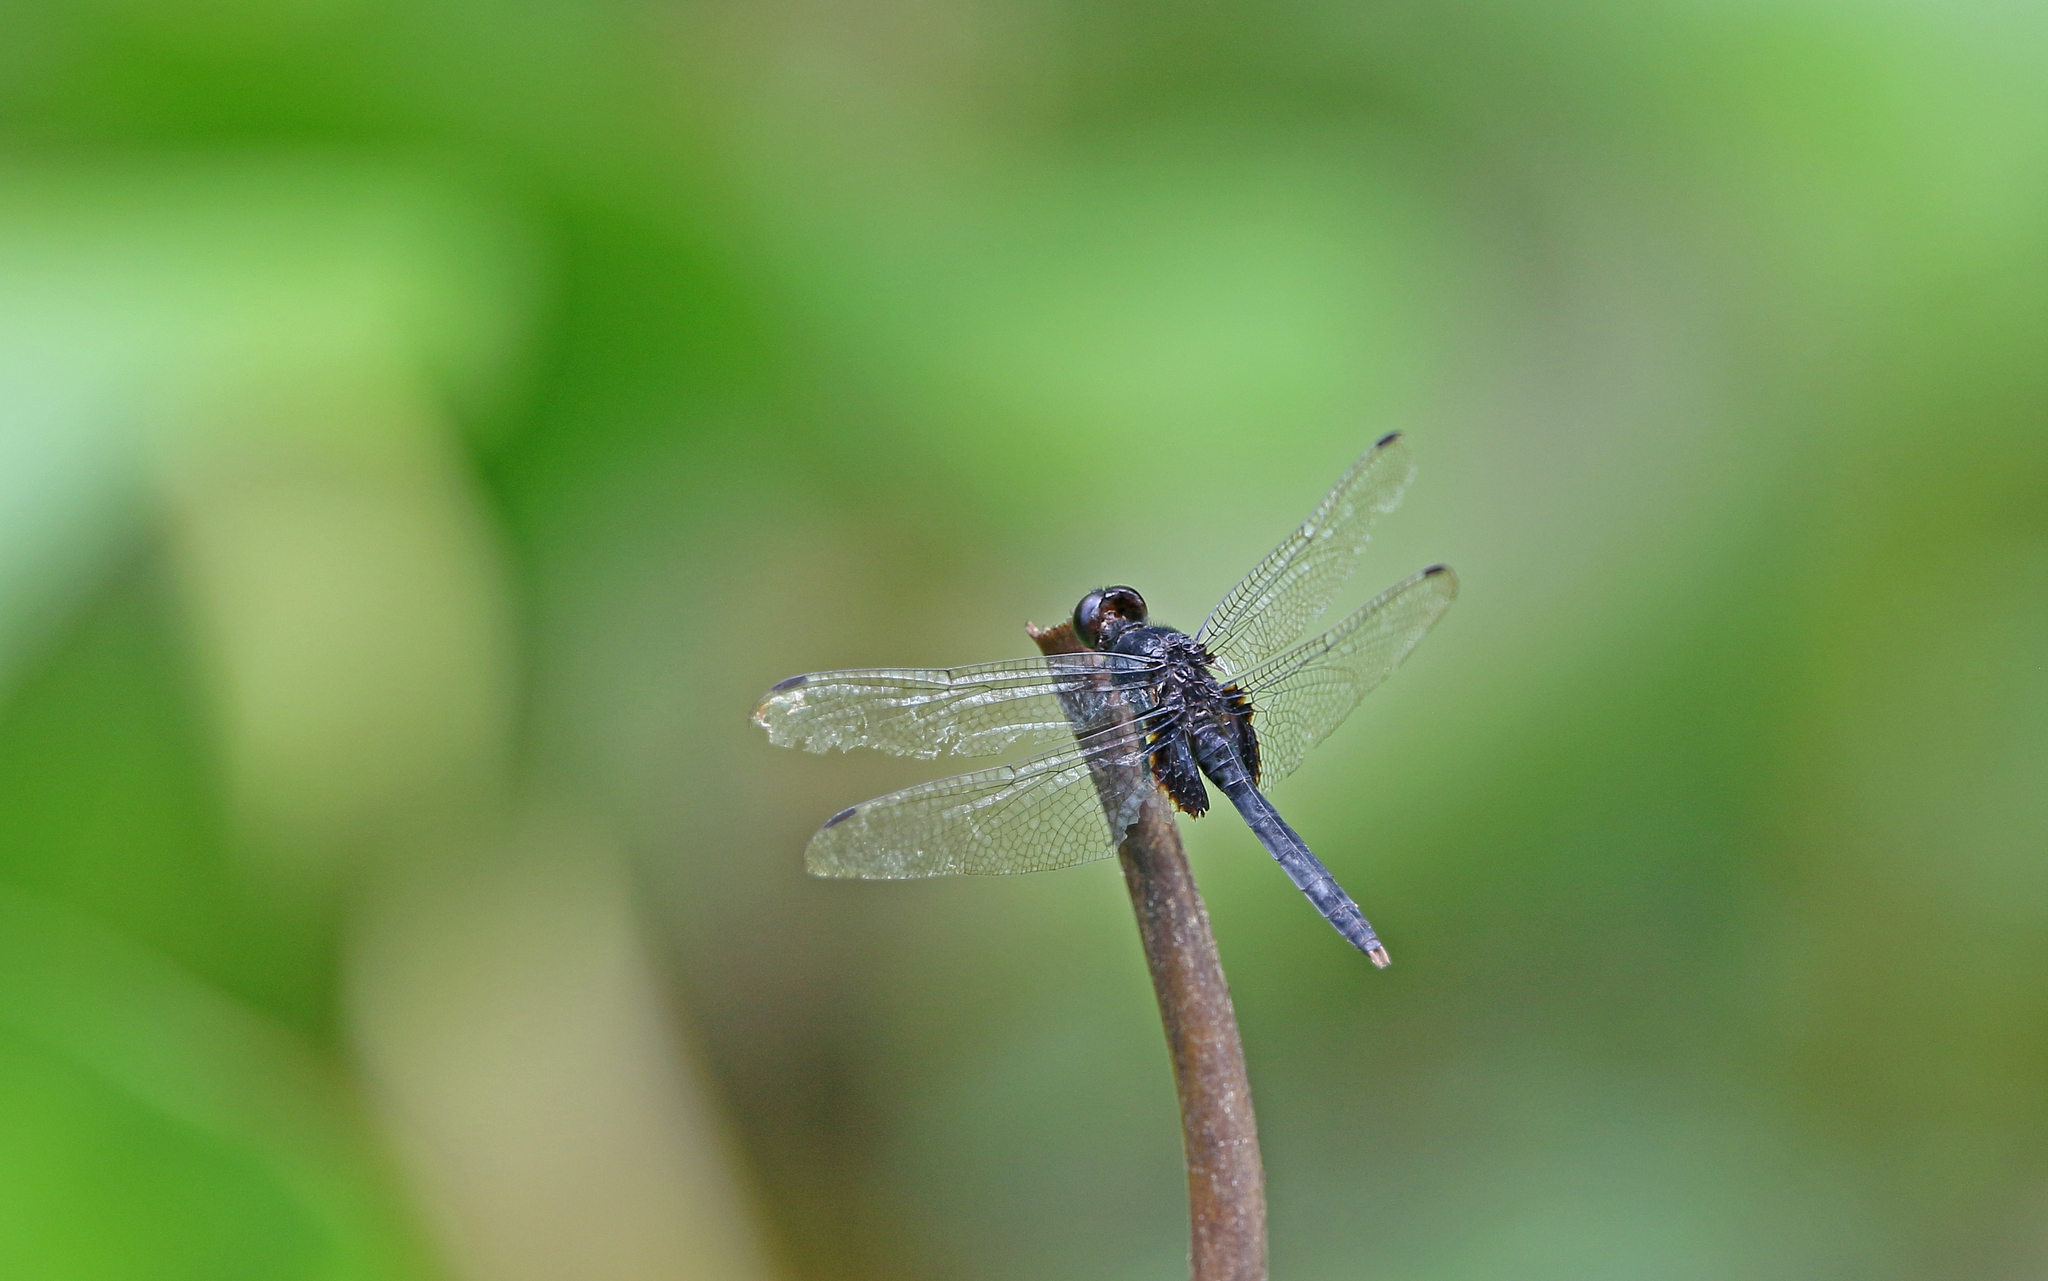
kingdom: Animalia
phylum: Arthropoda
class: Insecta
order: Odonata
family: Libellulidae
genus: Erythemis
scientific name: Erythemis attala
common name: Black pondhawk
